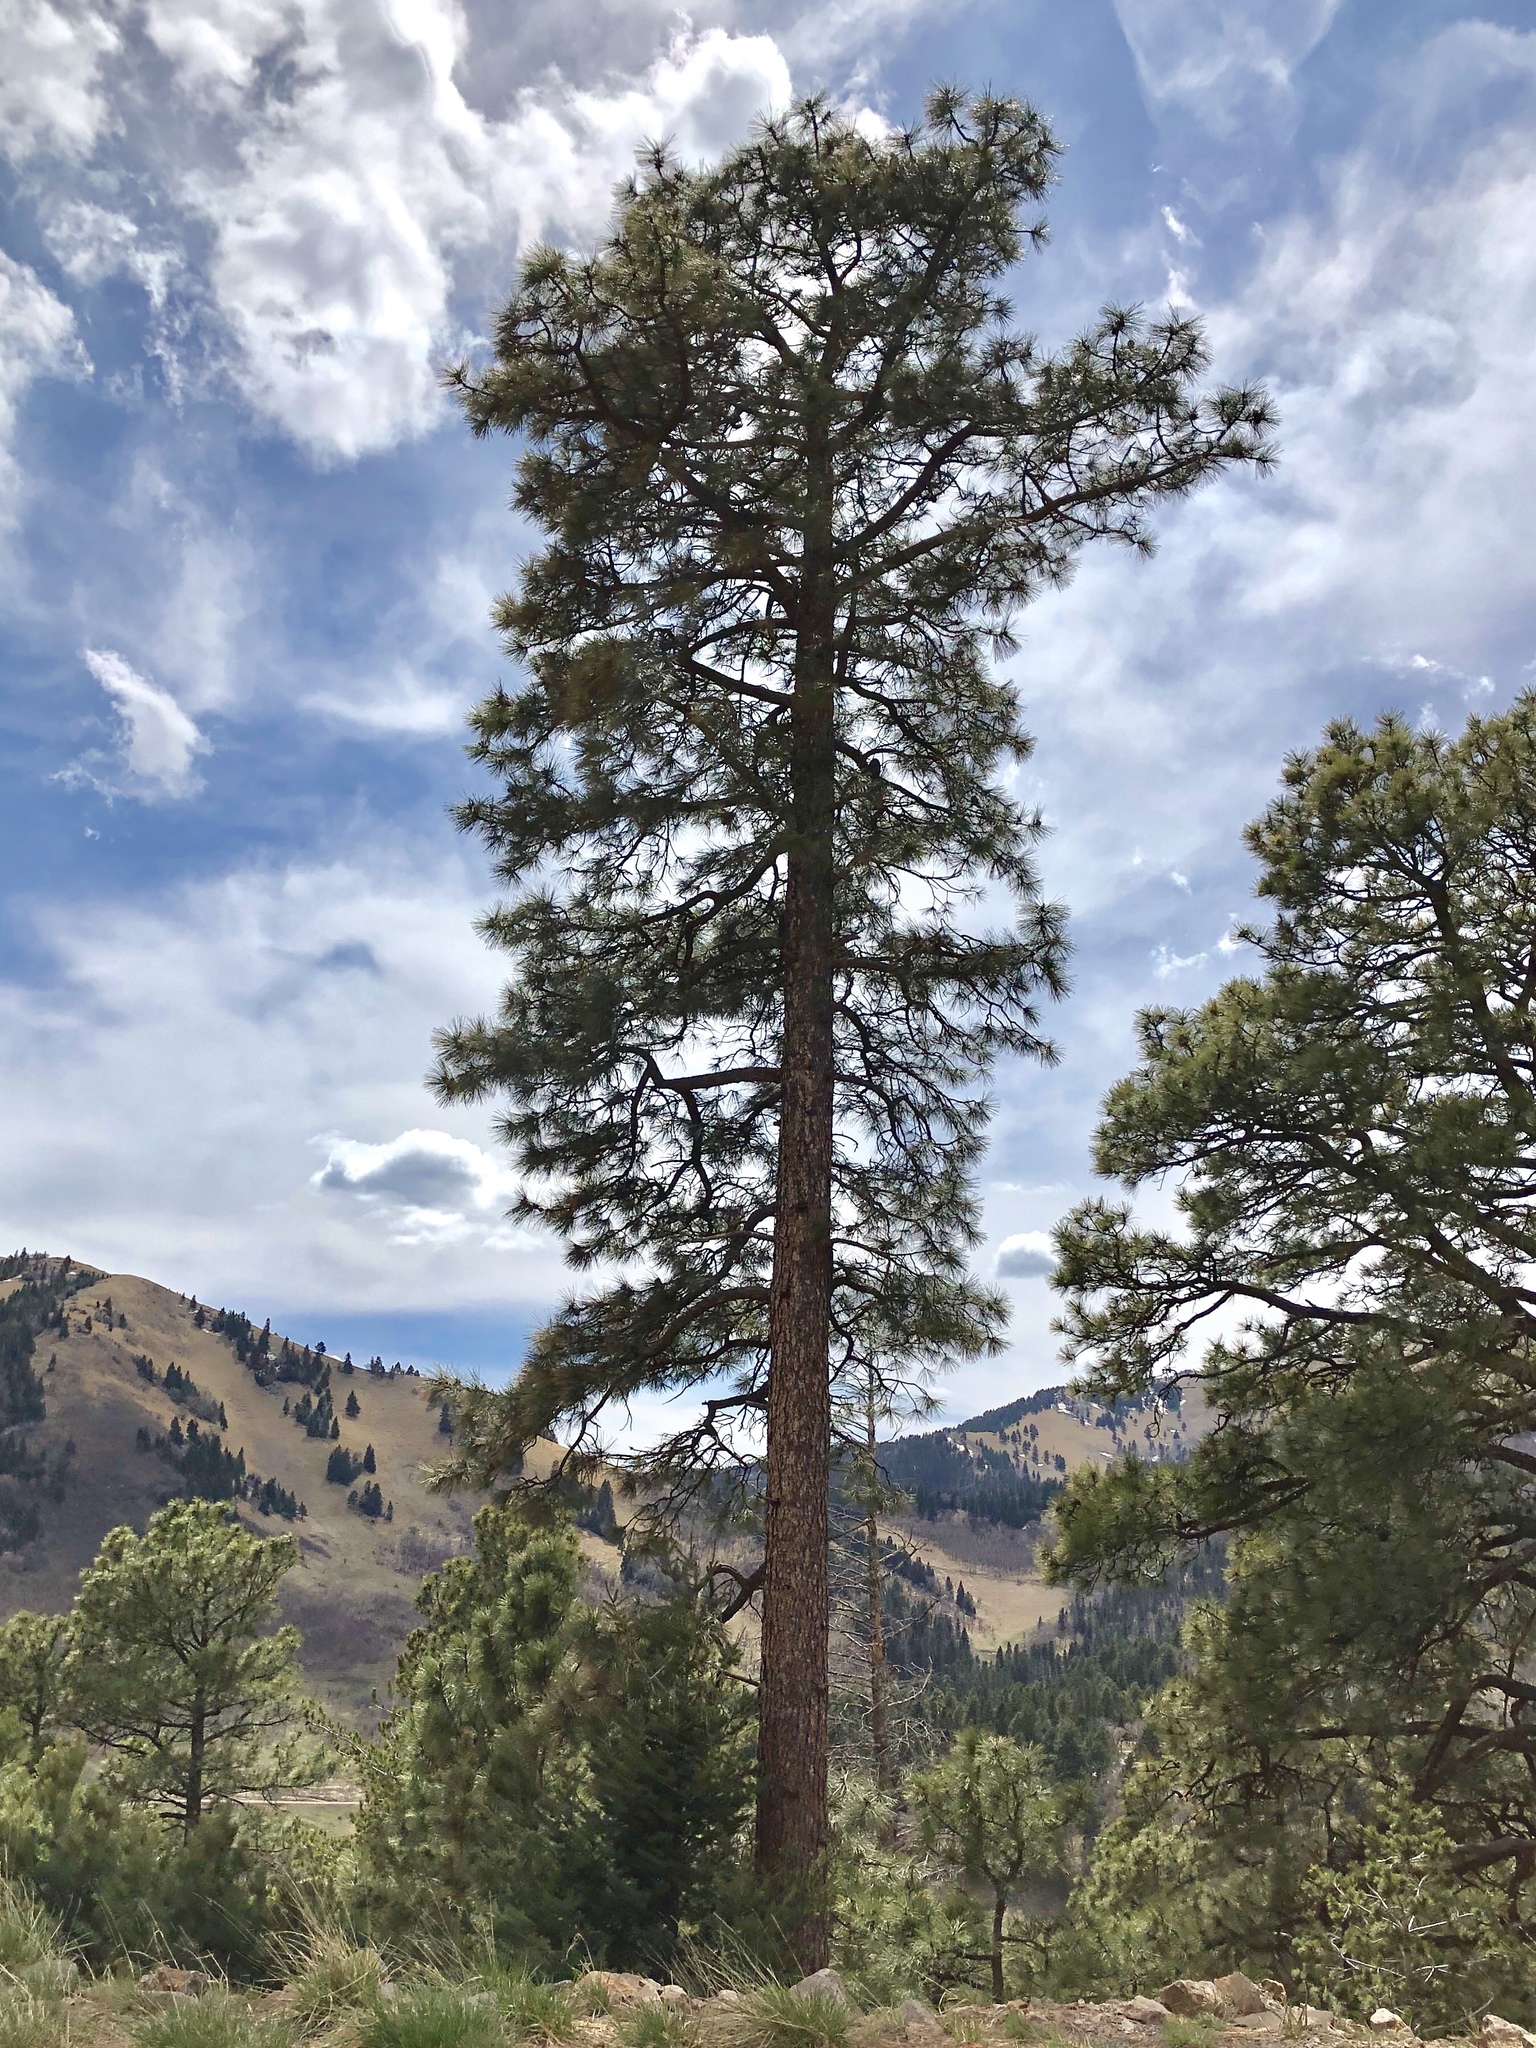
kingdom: Plantae
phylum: Tracheophyta
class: Pinopsida
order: Pinales
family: Pinaceae
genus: Pinus
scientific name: Pinus ponderosa
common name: Western yellow-pine
